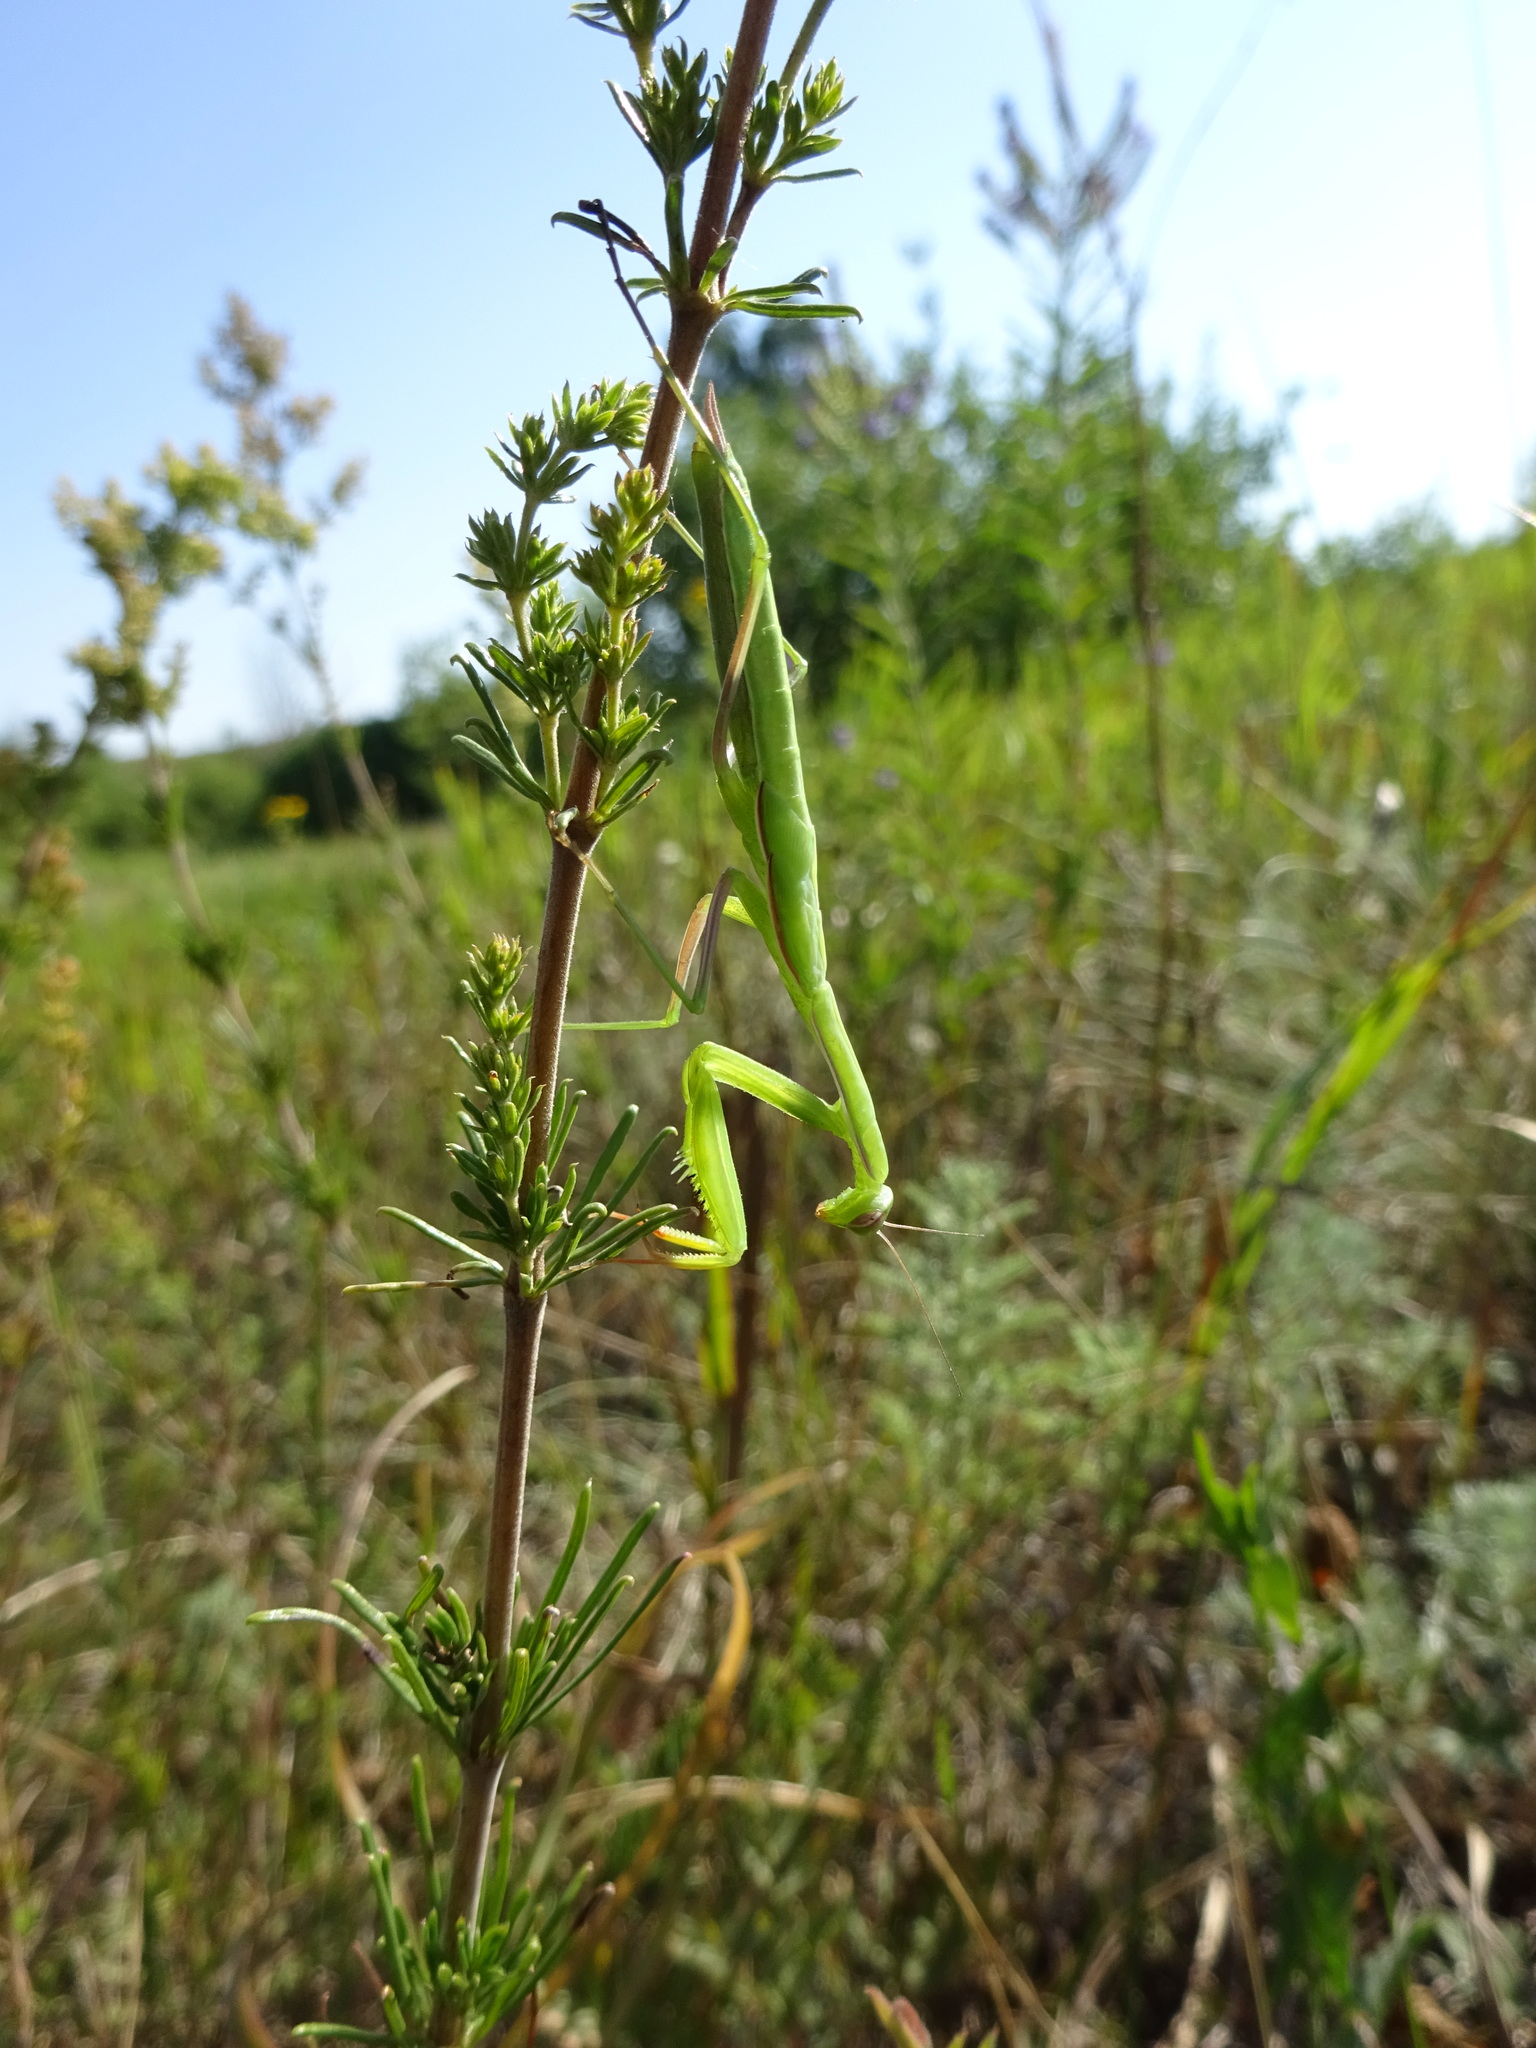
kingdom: Animalia
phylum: Arthropoda
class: Insecta
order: Mantodea
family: Mantidae
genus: Mantis
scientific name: Mantis religiosa
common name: Praying mantis
